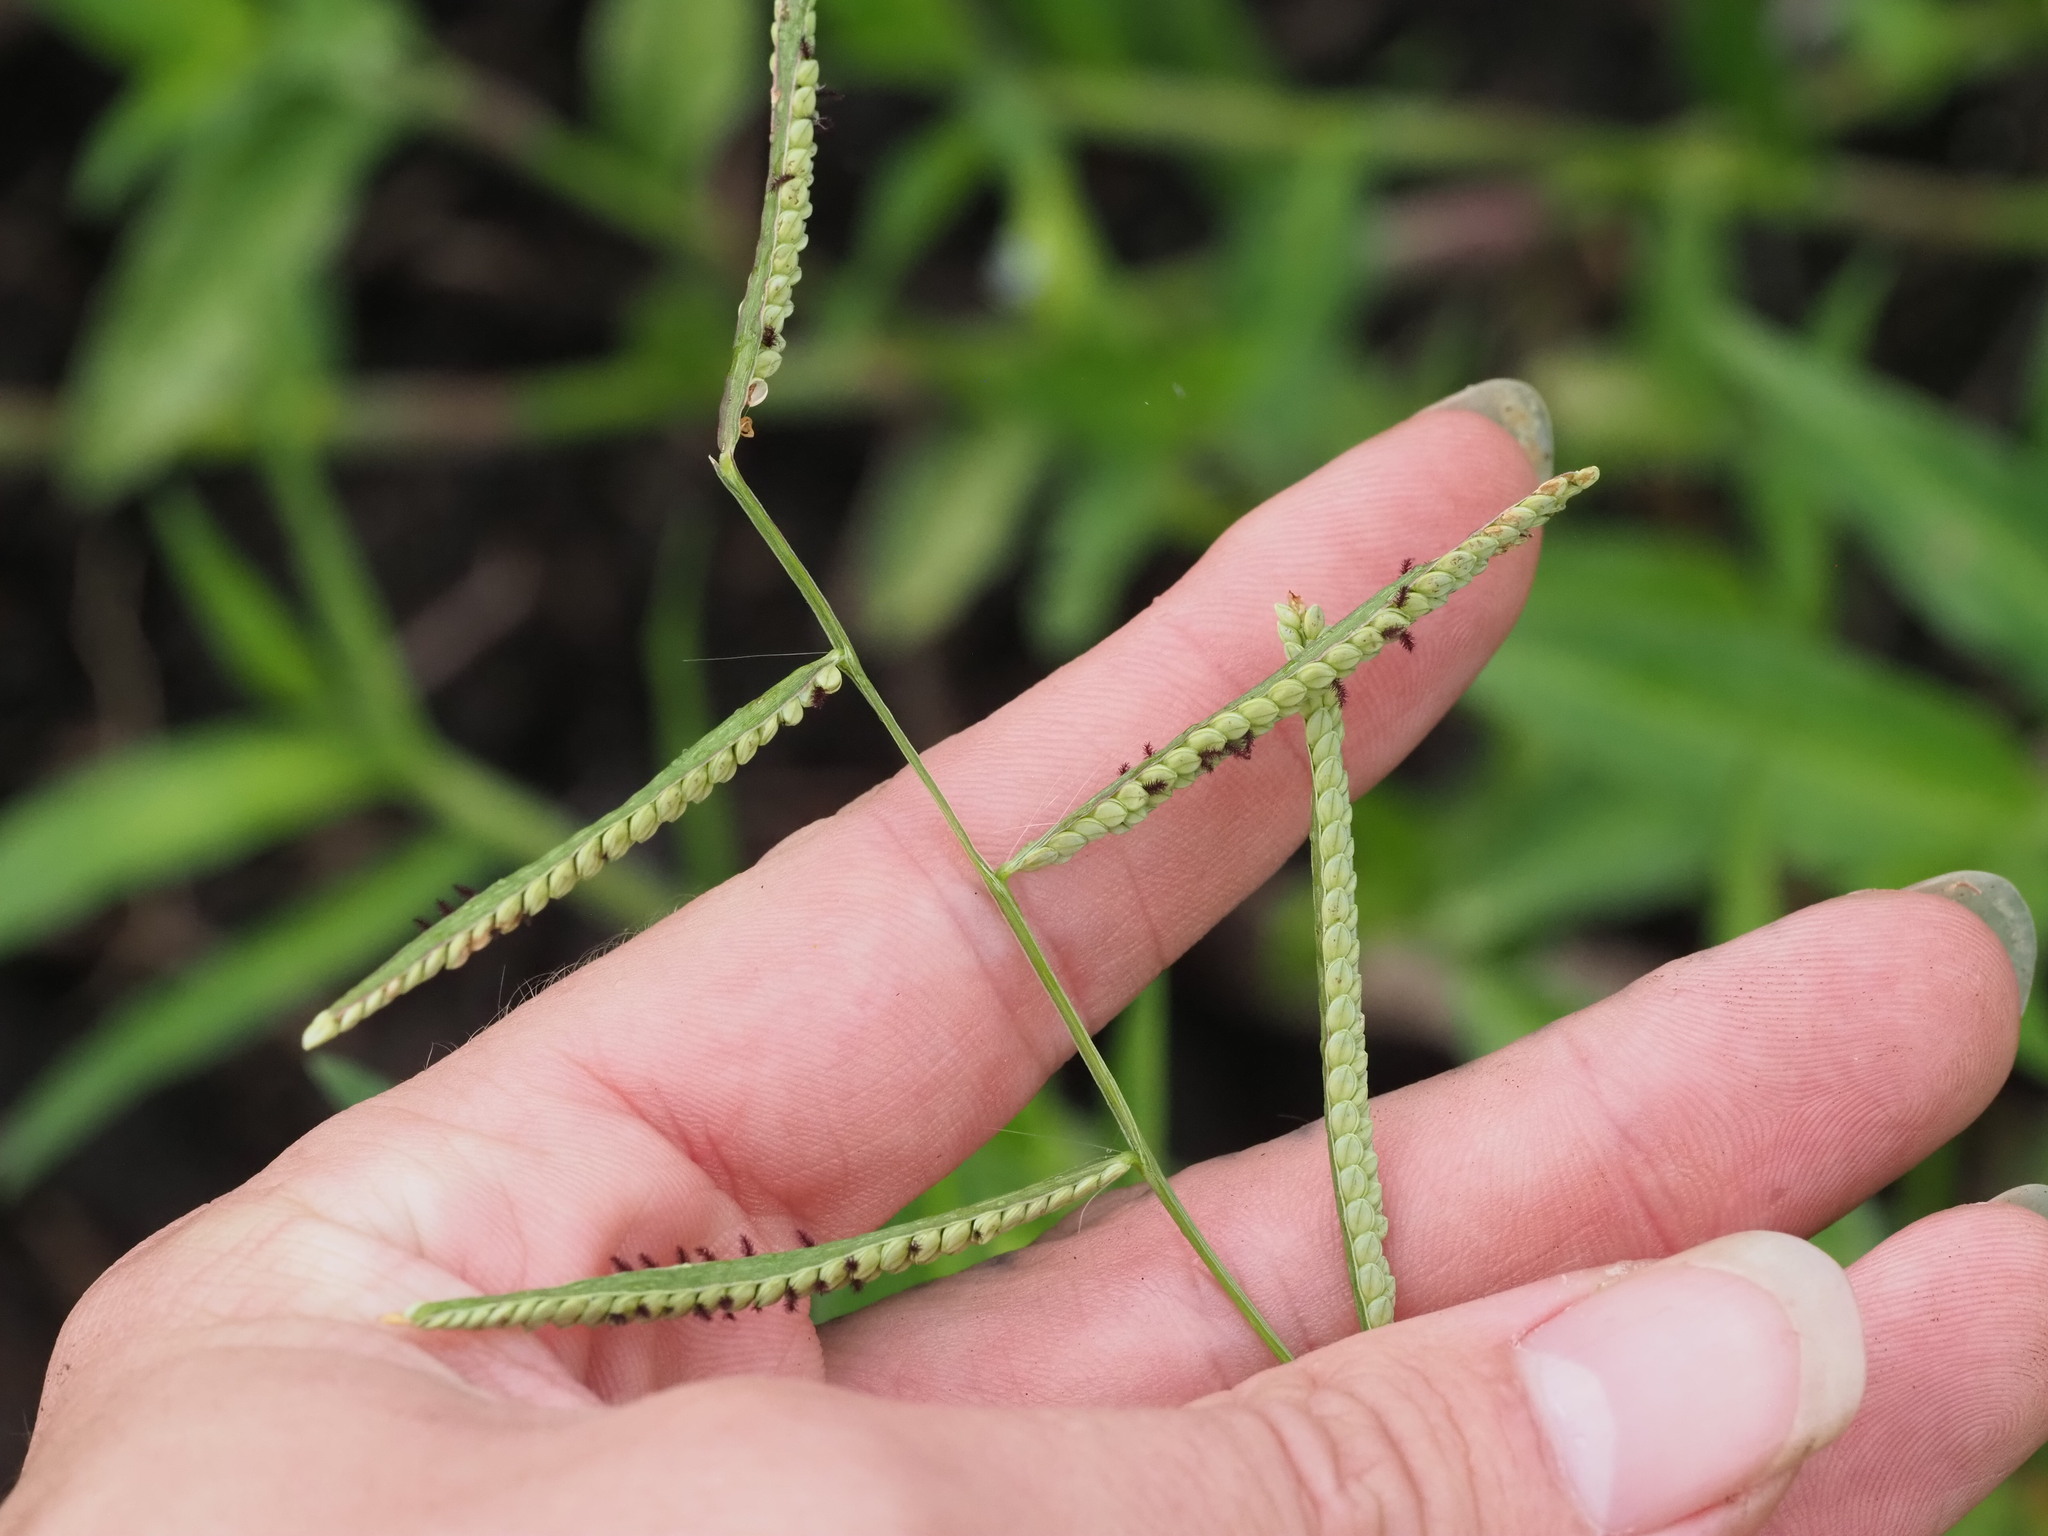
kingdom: Plantae
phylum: Tracheophyta
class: Liliopsida
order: Poales
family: Poaceae
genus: Paspalum
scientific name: Paspalum scrobiculatum
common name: Kodo millet
